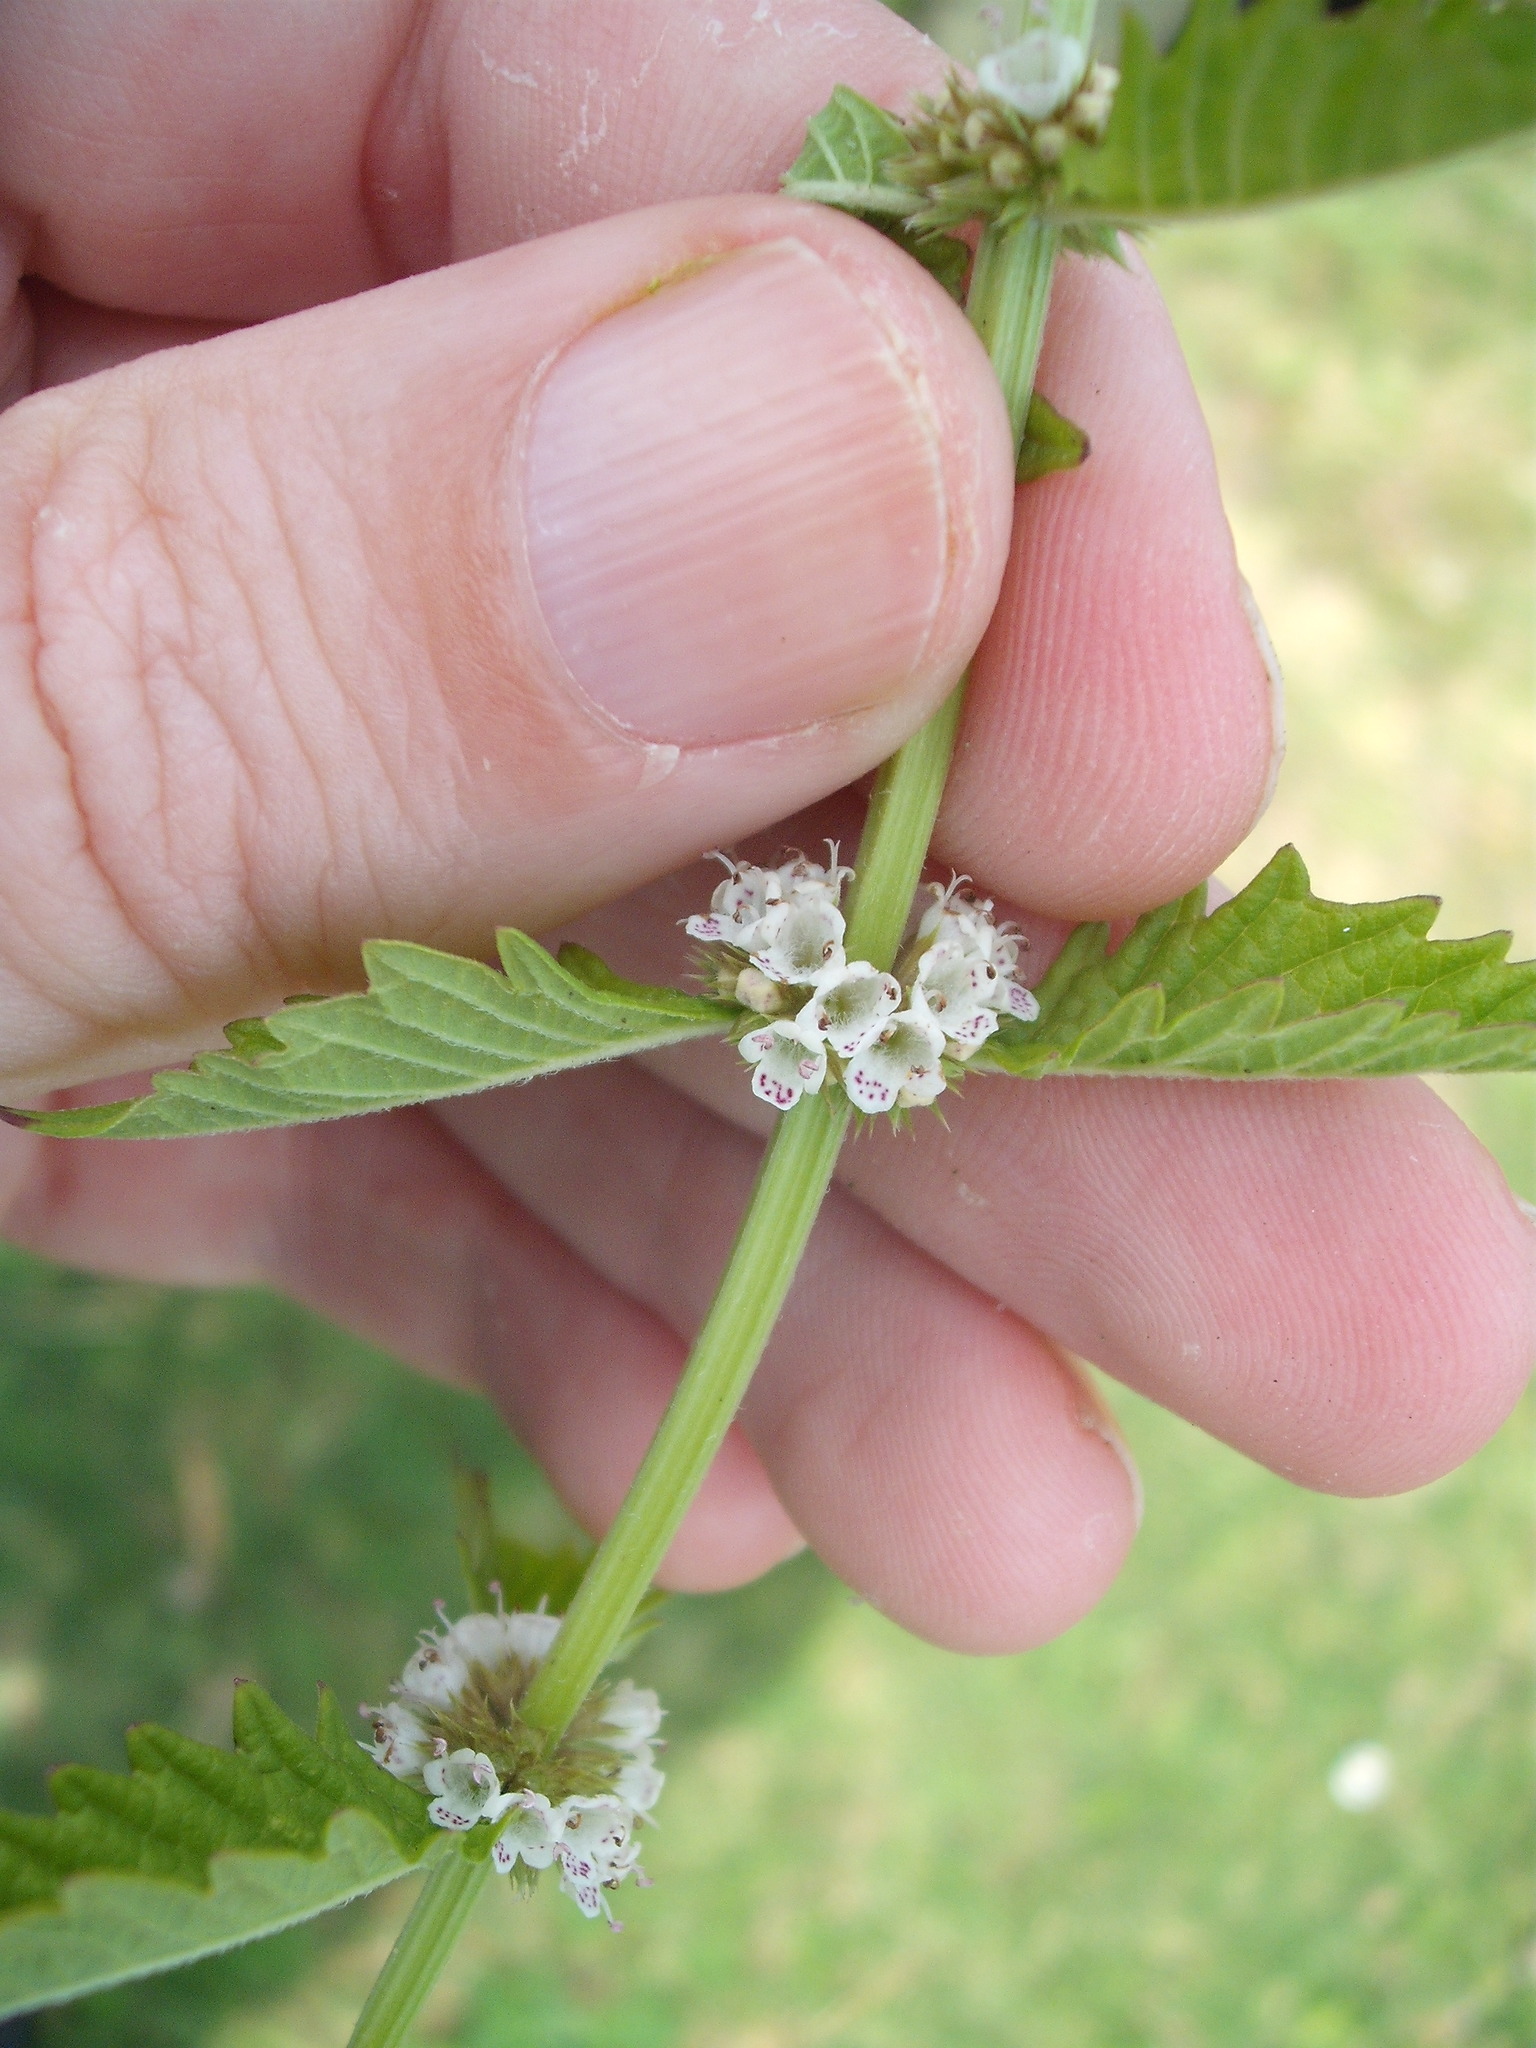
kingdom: Plantae
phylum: Tracheophyta
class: Magnoliopsida
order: Lamiales
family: Lamiaceae
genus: Lycopus
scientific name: Lycopus europaeus
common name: European bugleweed
